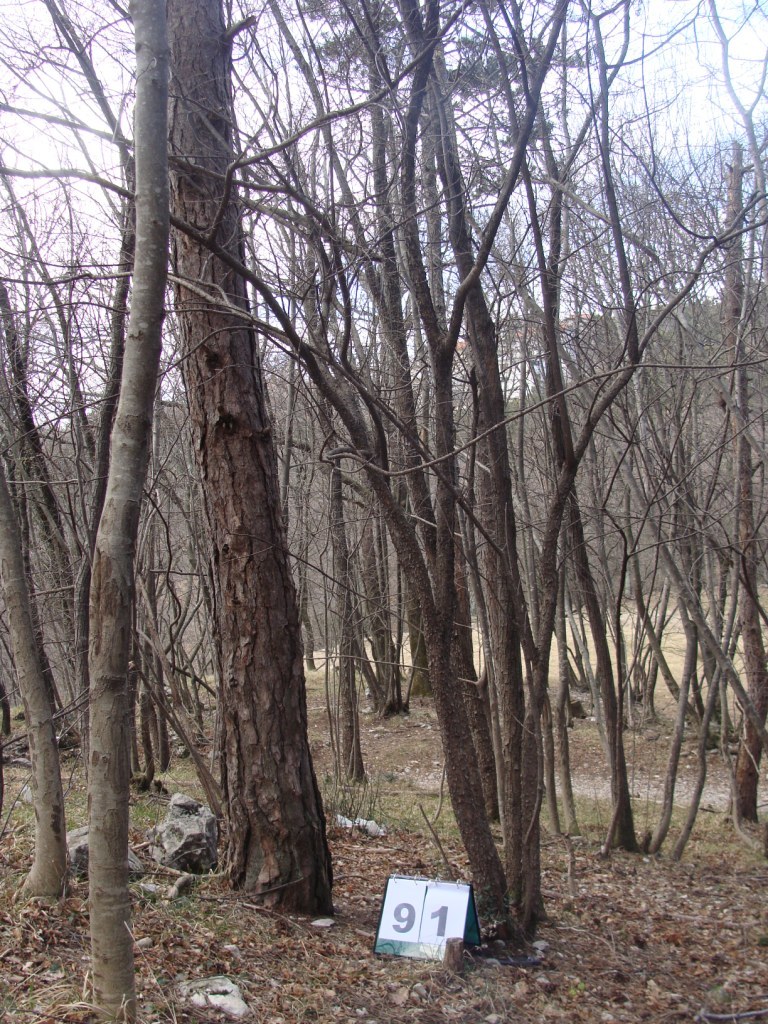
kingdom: Plantae
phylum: Tracheophyta
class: Magnoliopsida
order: Cornales
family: Cornaceae
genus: Cornus
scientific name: Cornus mas
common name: Cornelian-cherry
